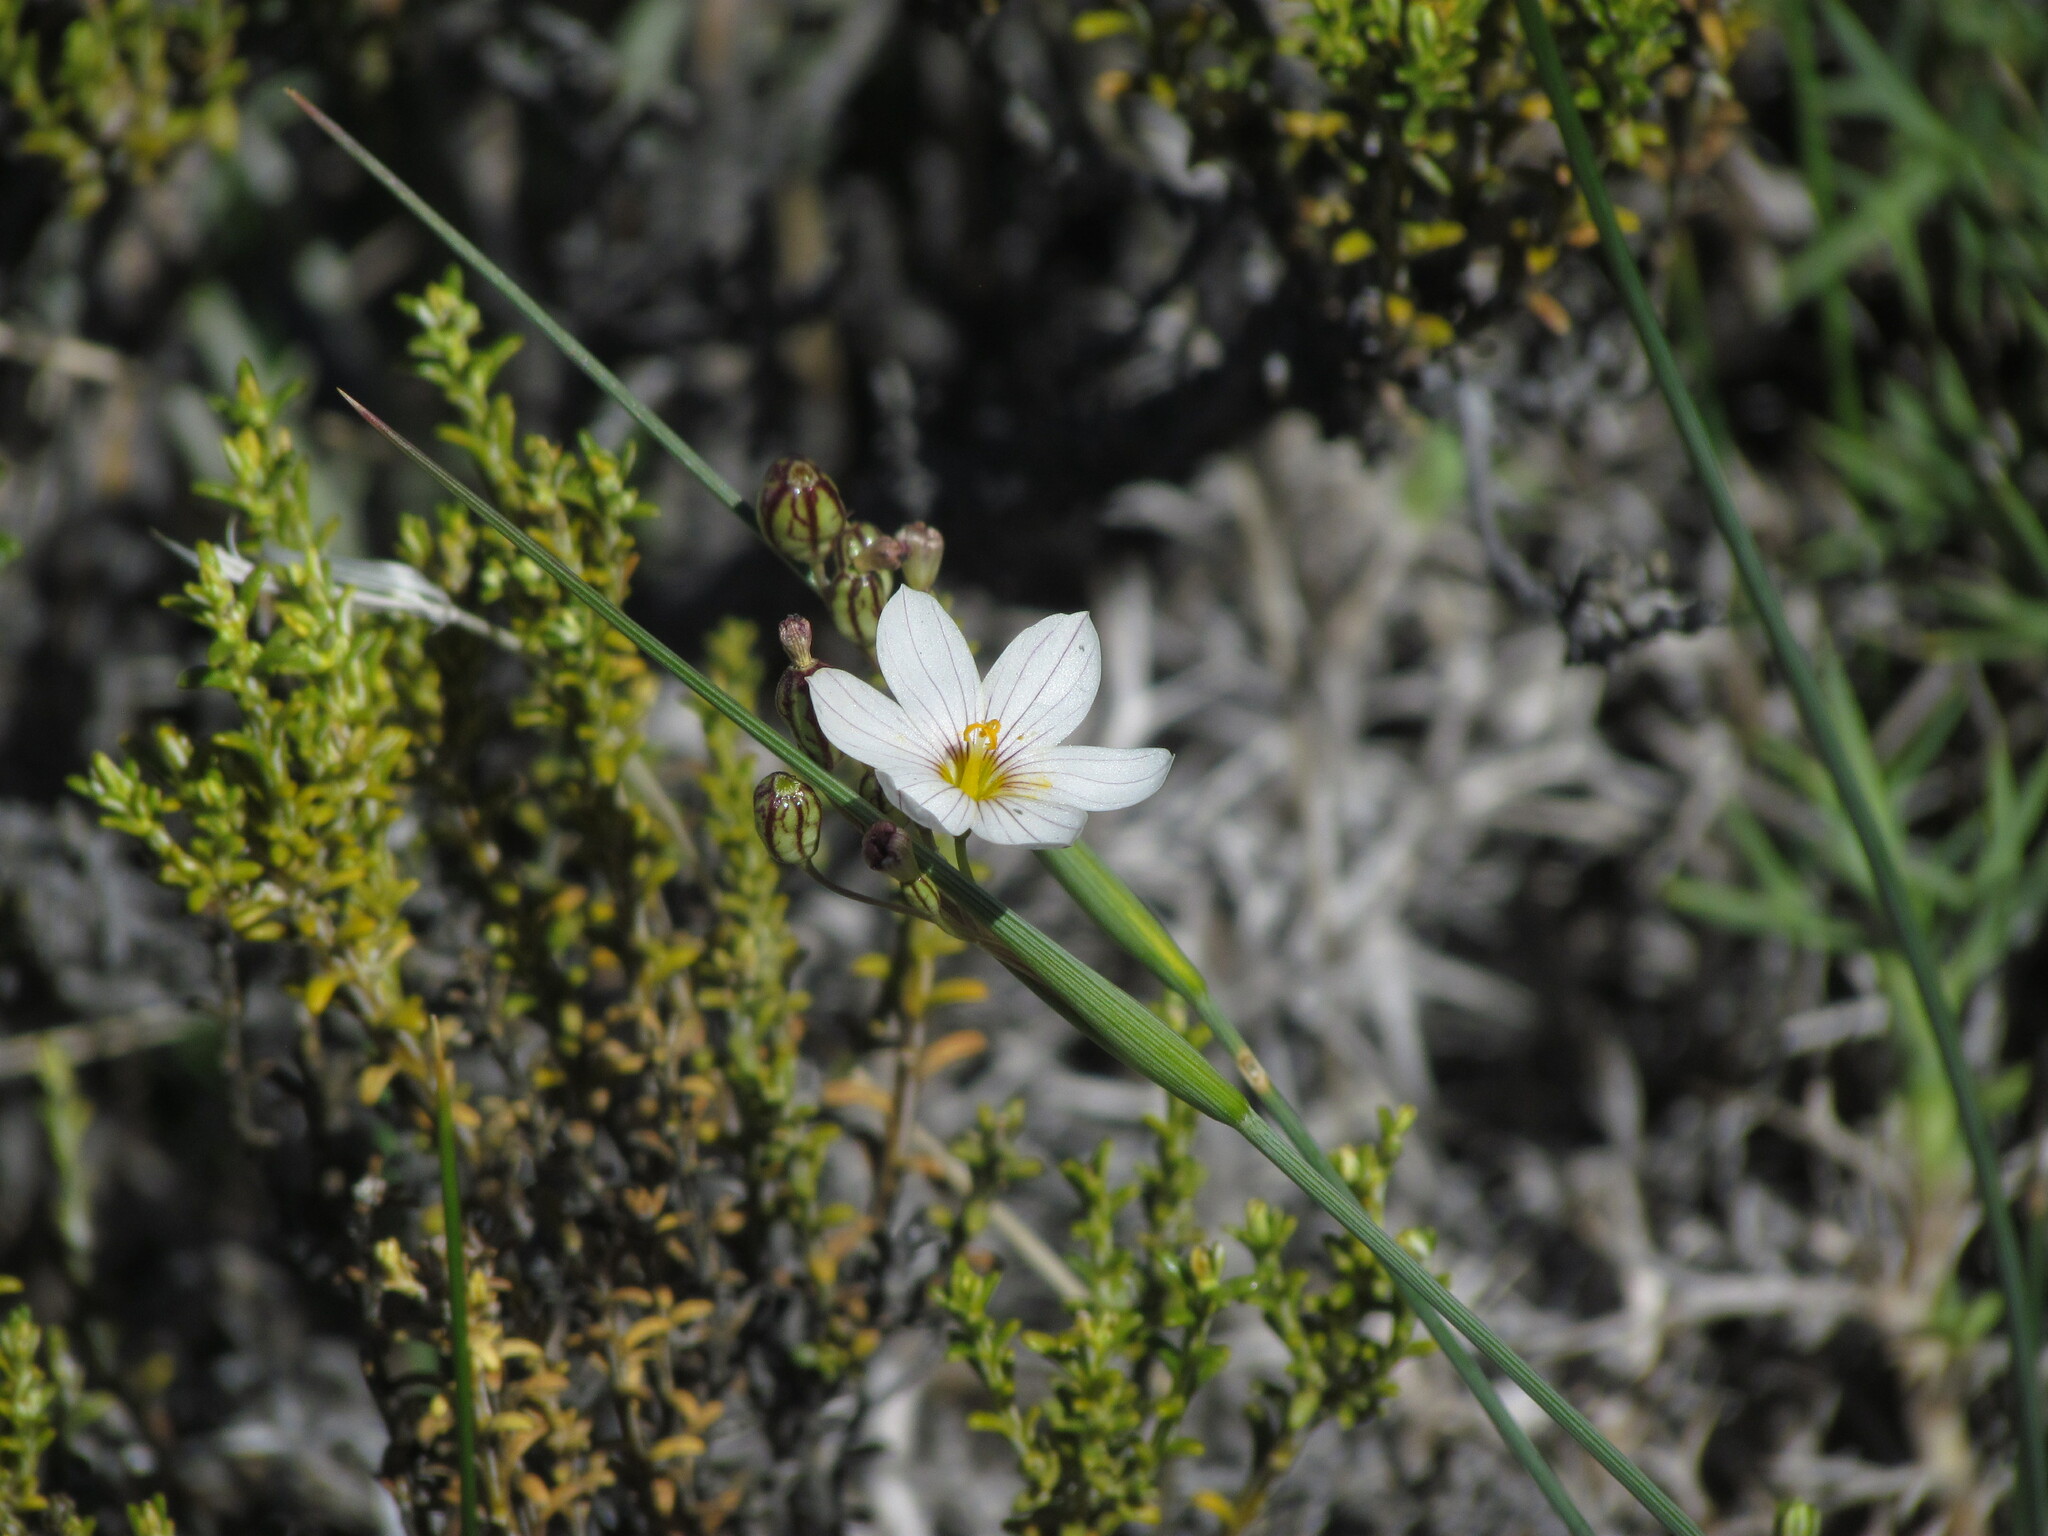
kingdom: Plantae
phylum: Tracheophyta
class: Liliopsida
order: Asparagales
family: Iridaceae
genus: Olsynium
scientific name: Olsynium junceum
